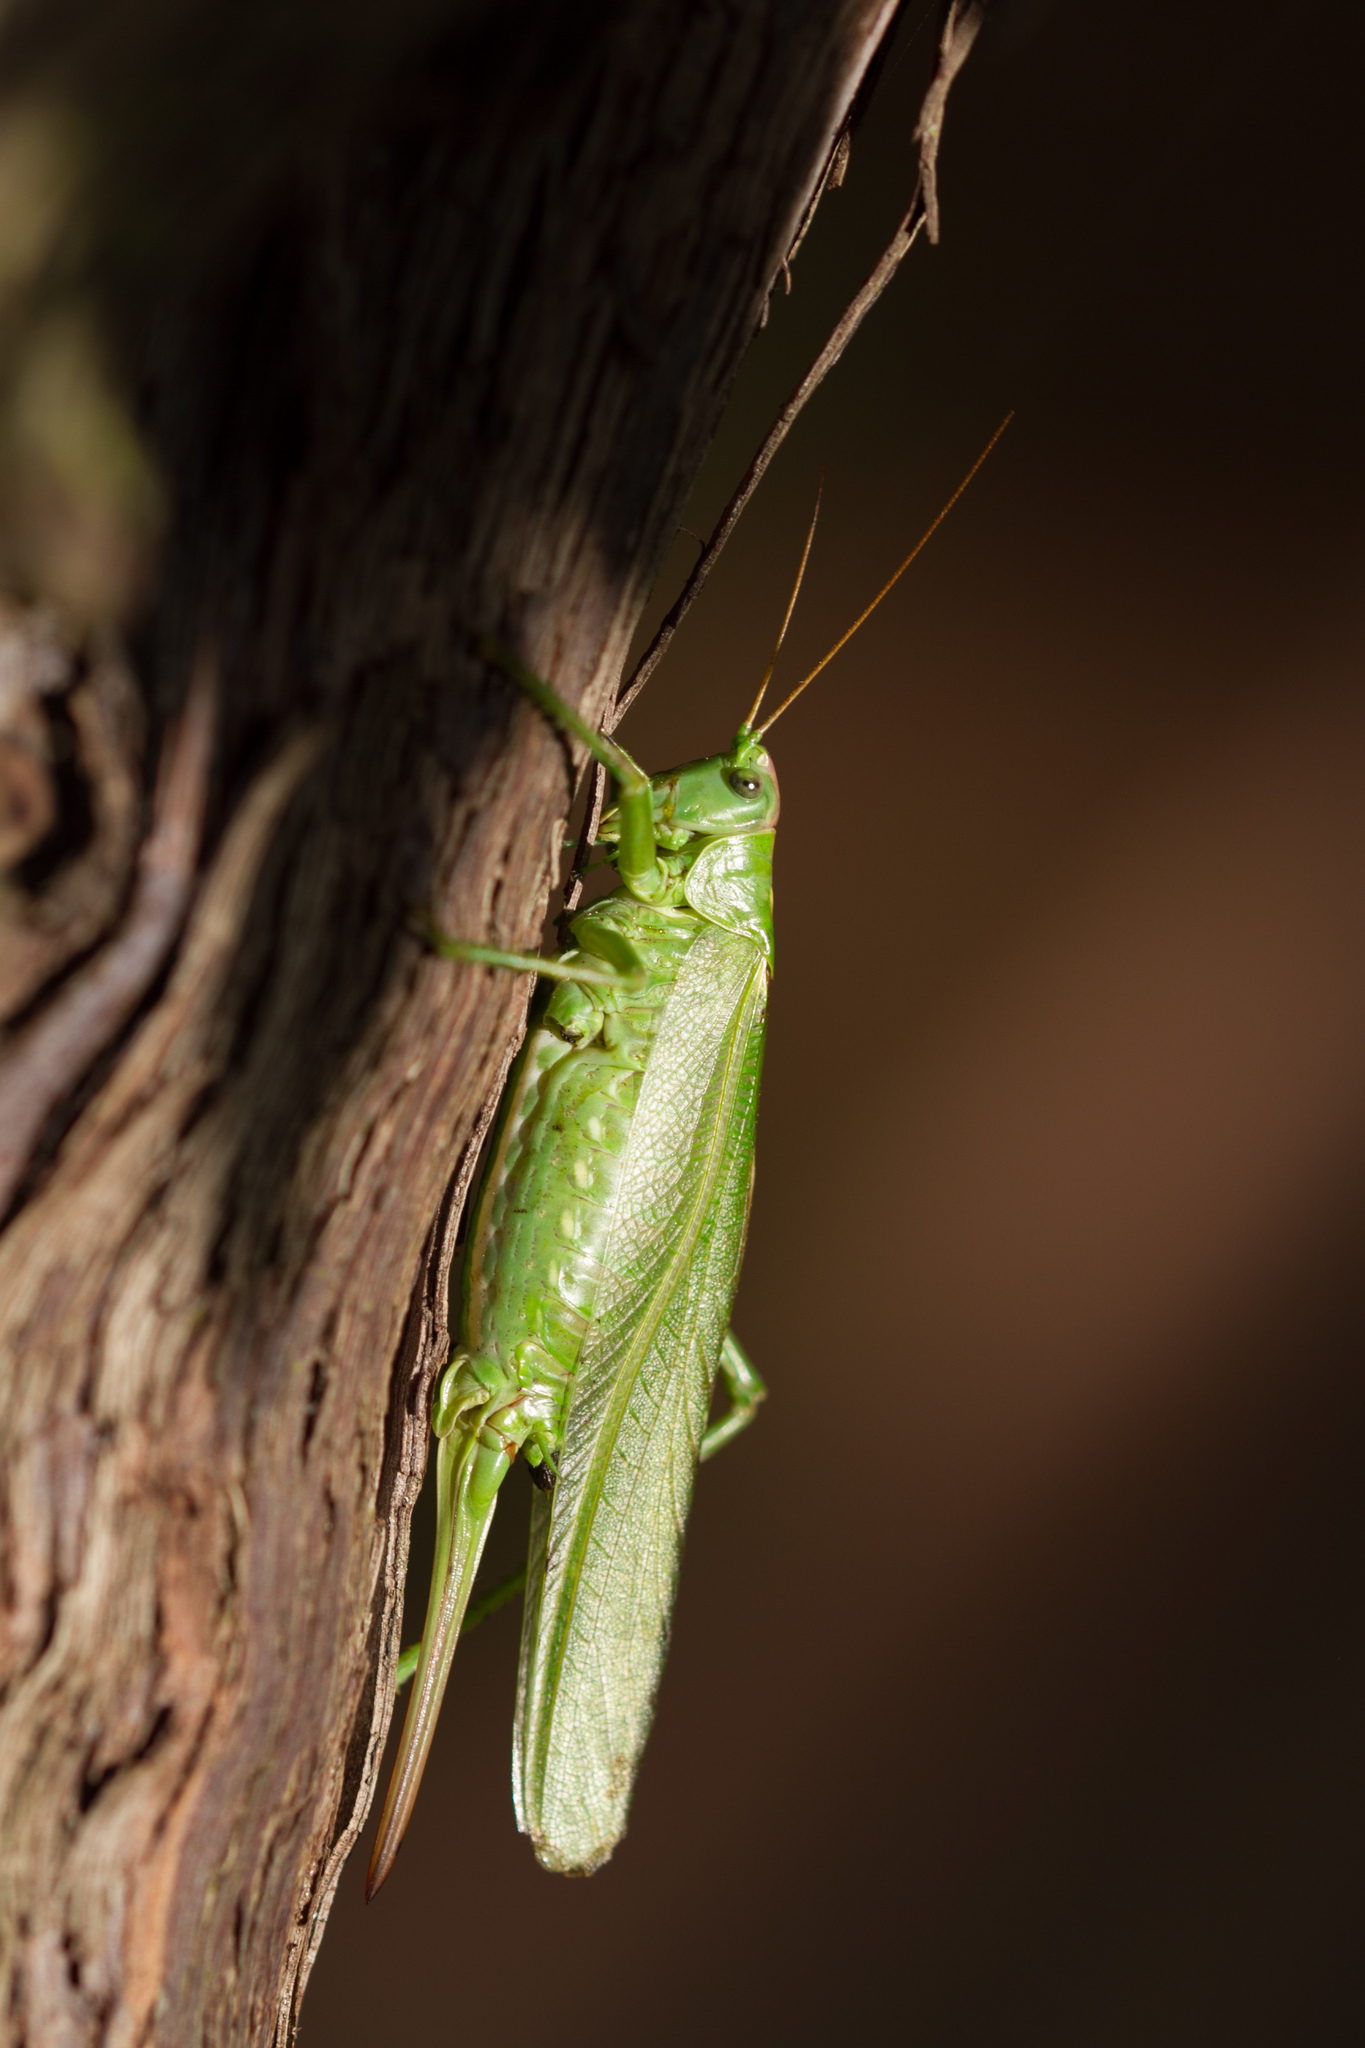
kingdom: Animalia
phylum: Arthropoda
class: Insecta
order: Orthoptera
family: Tettigoniidae
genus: Tettigonia
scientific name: Tettigonia viridissima
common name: Great green bush-cricket
